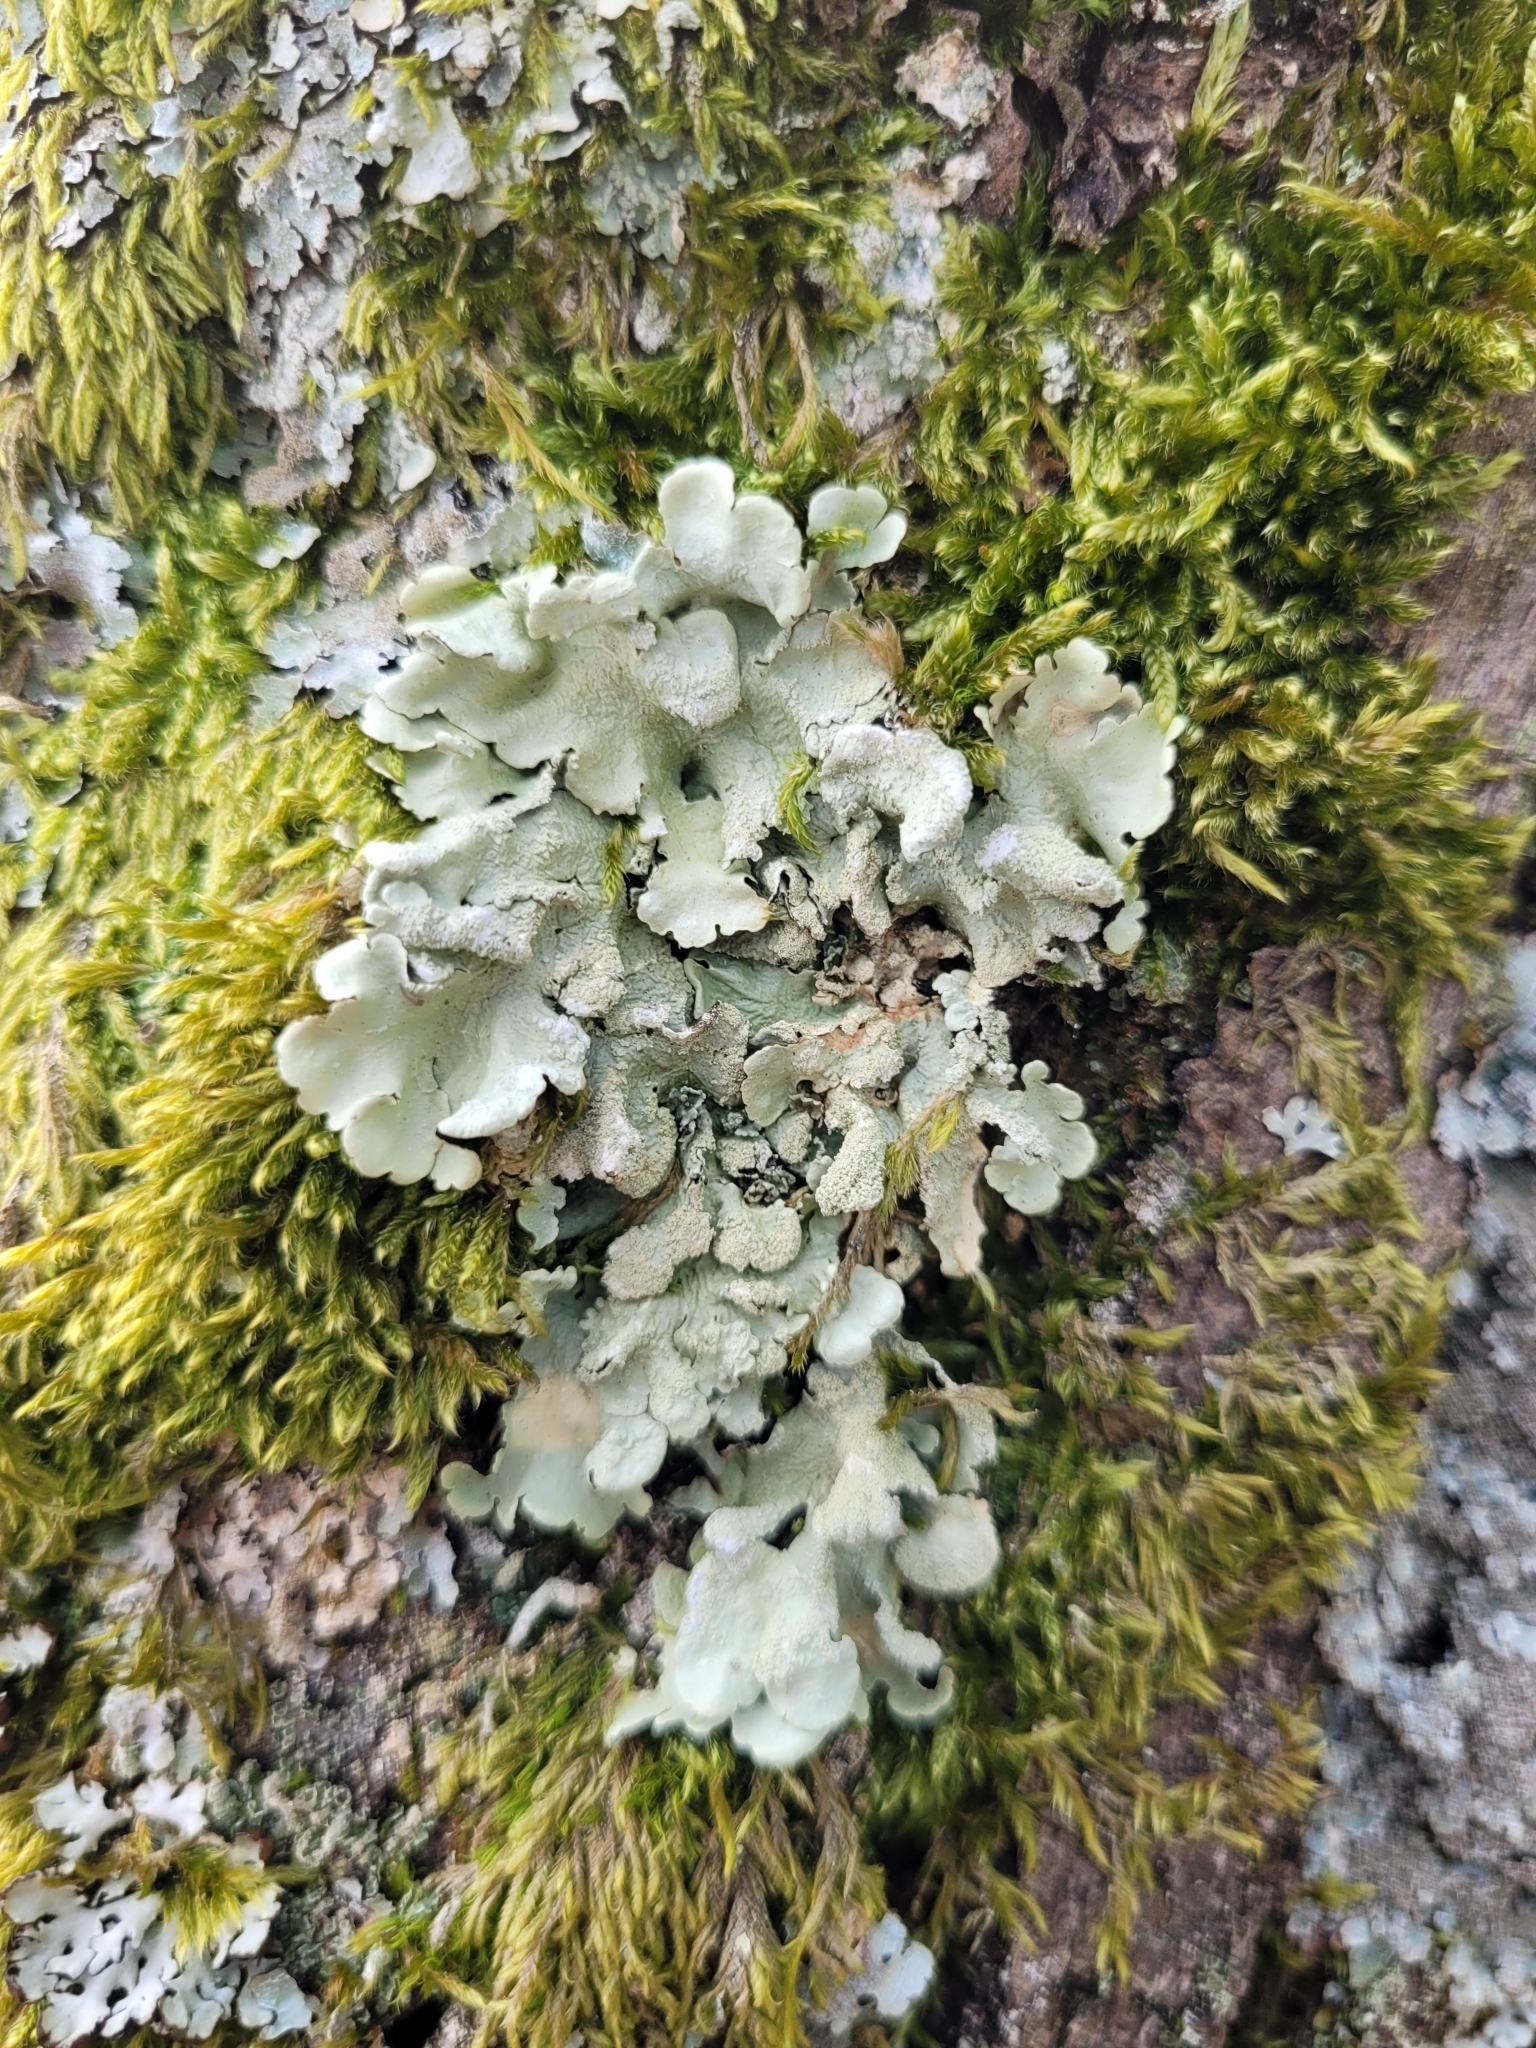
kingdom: Fungi
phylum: Ascomycota
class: Lecanoromycetes
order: Lecanorales
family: Parmeliaceae
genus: Flavoparmelia
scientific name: Flavoparmelia caperata
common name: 40-mile per hour lichen
